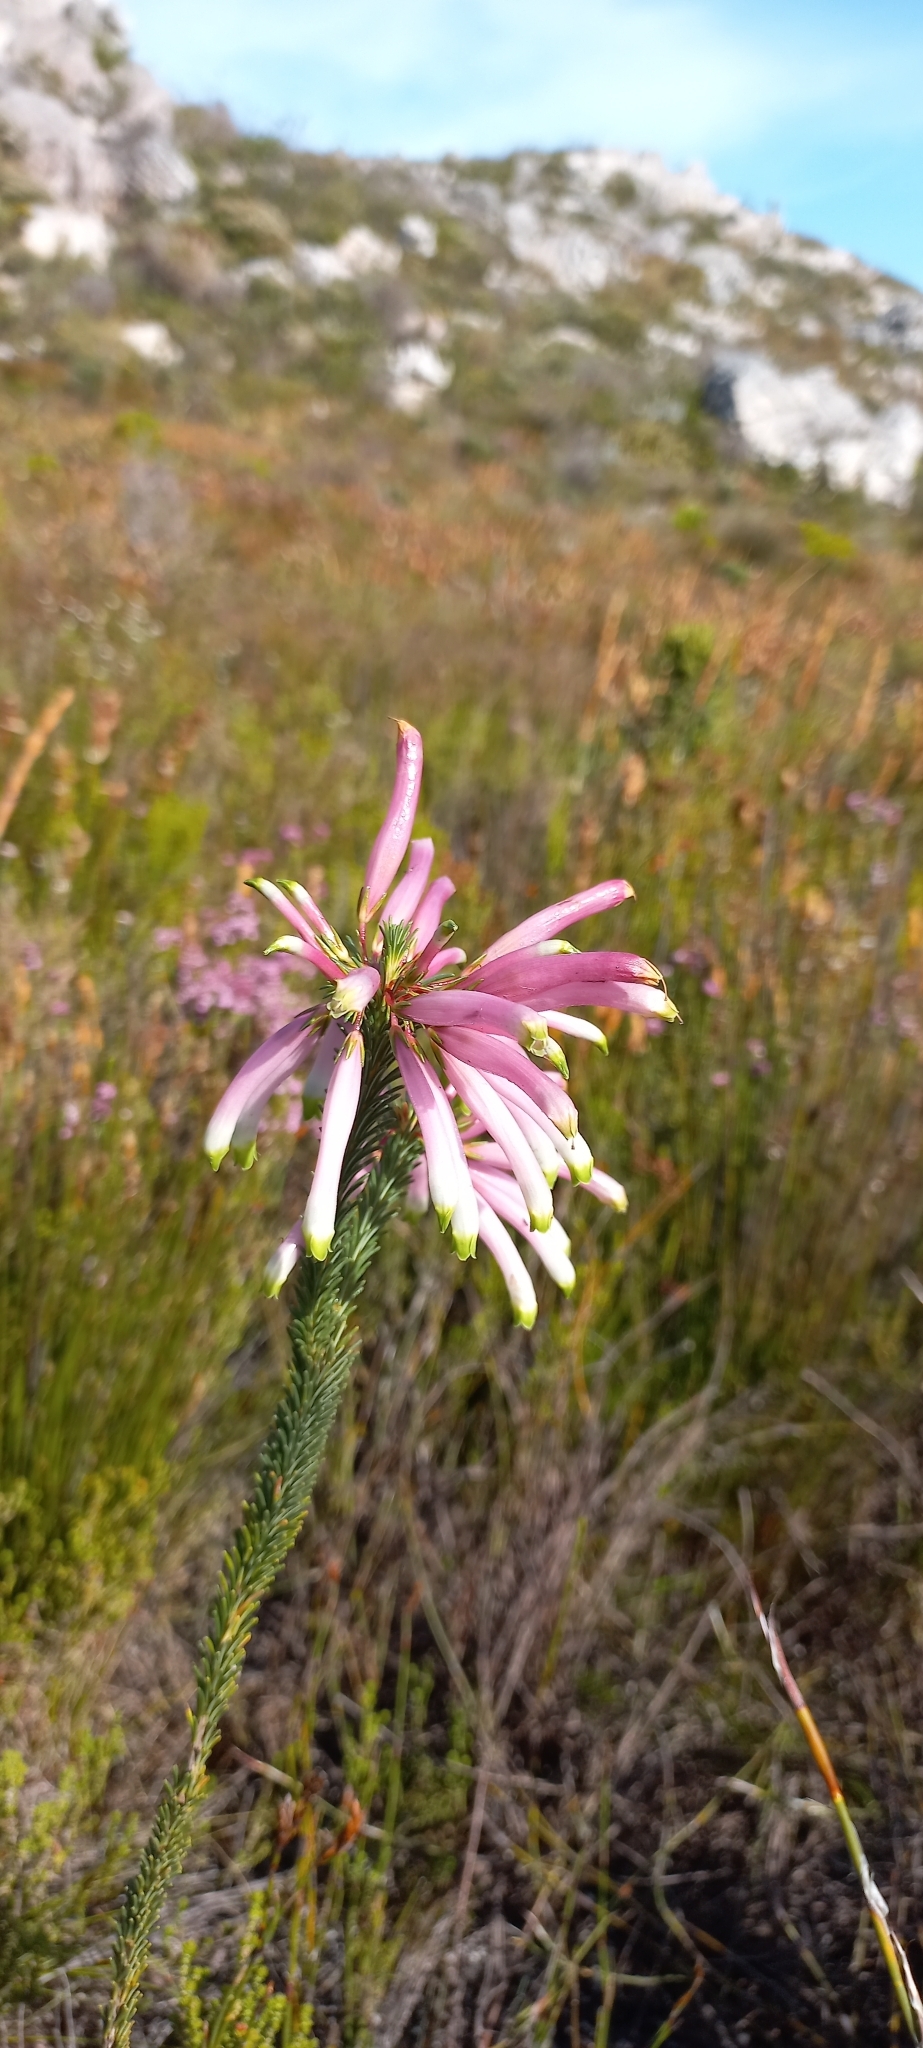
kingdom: Plantae
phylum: Tracheophyta
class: Magnoliopsida
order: Ericales
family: Ericaceae
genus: Erica
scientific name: Erica fascicularis
